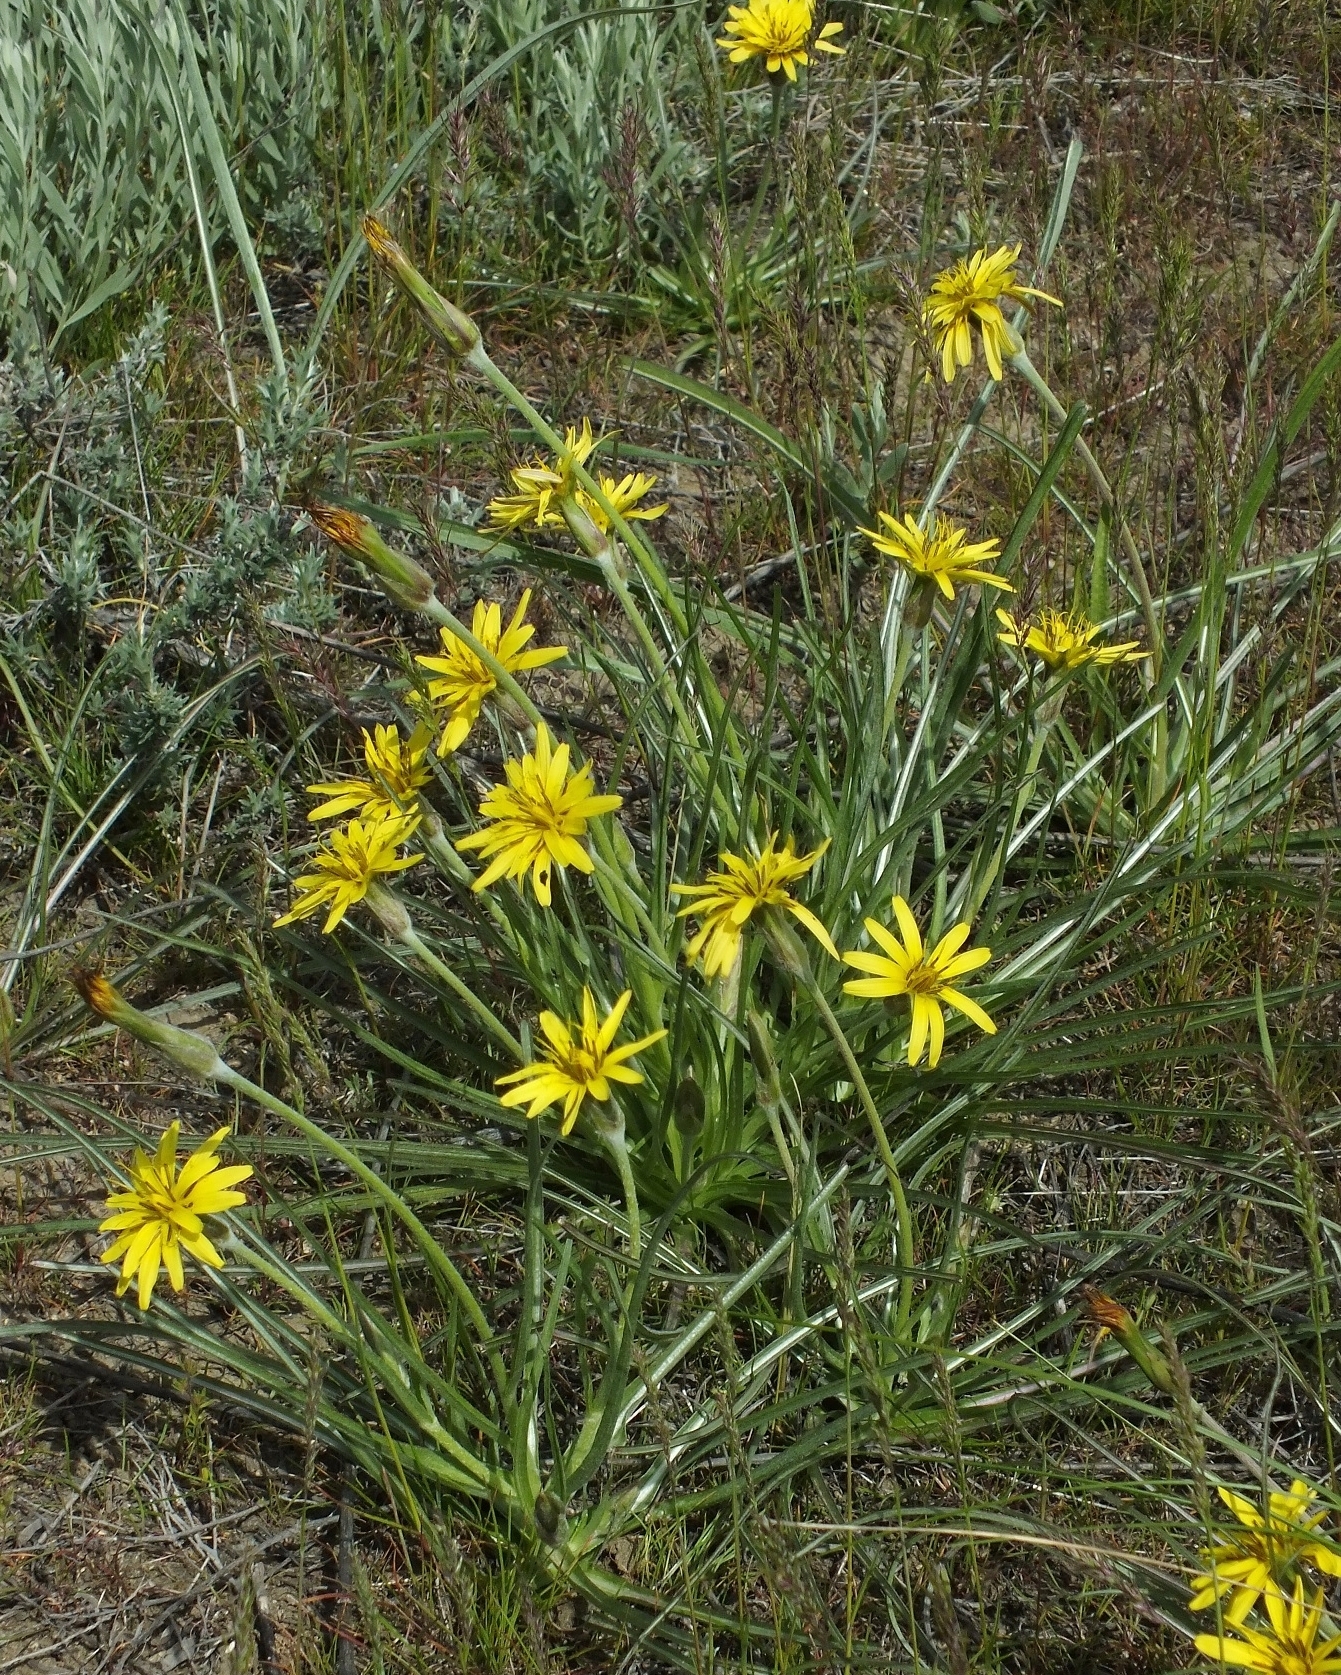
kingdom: Plantae
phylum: Tracheophyta
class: Magnoliopsida
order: Asterales
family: Asteraceae
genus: Candollea
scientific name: Candollea mollis
